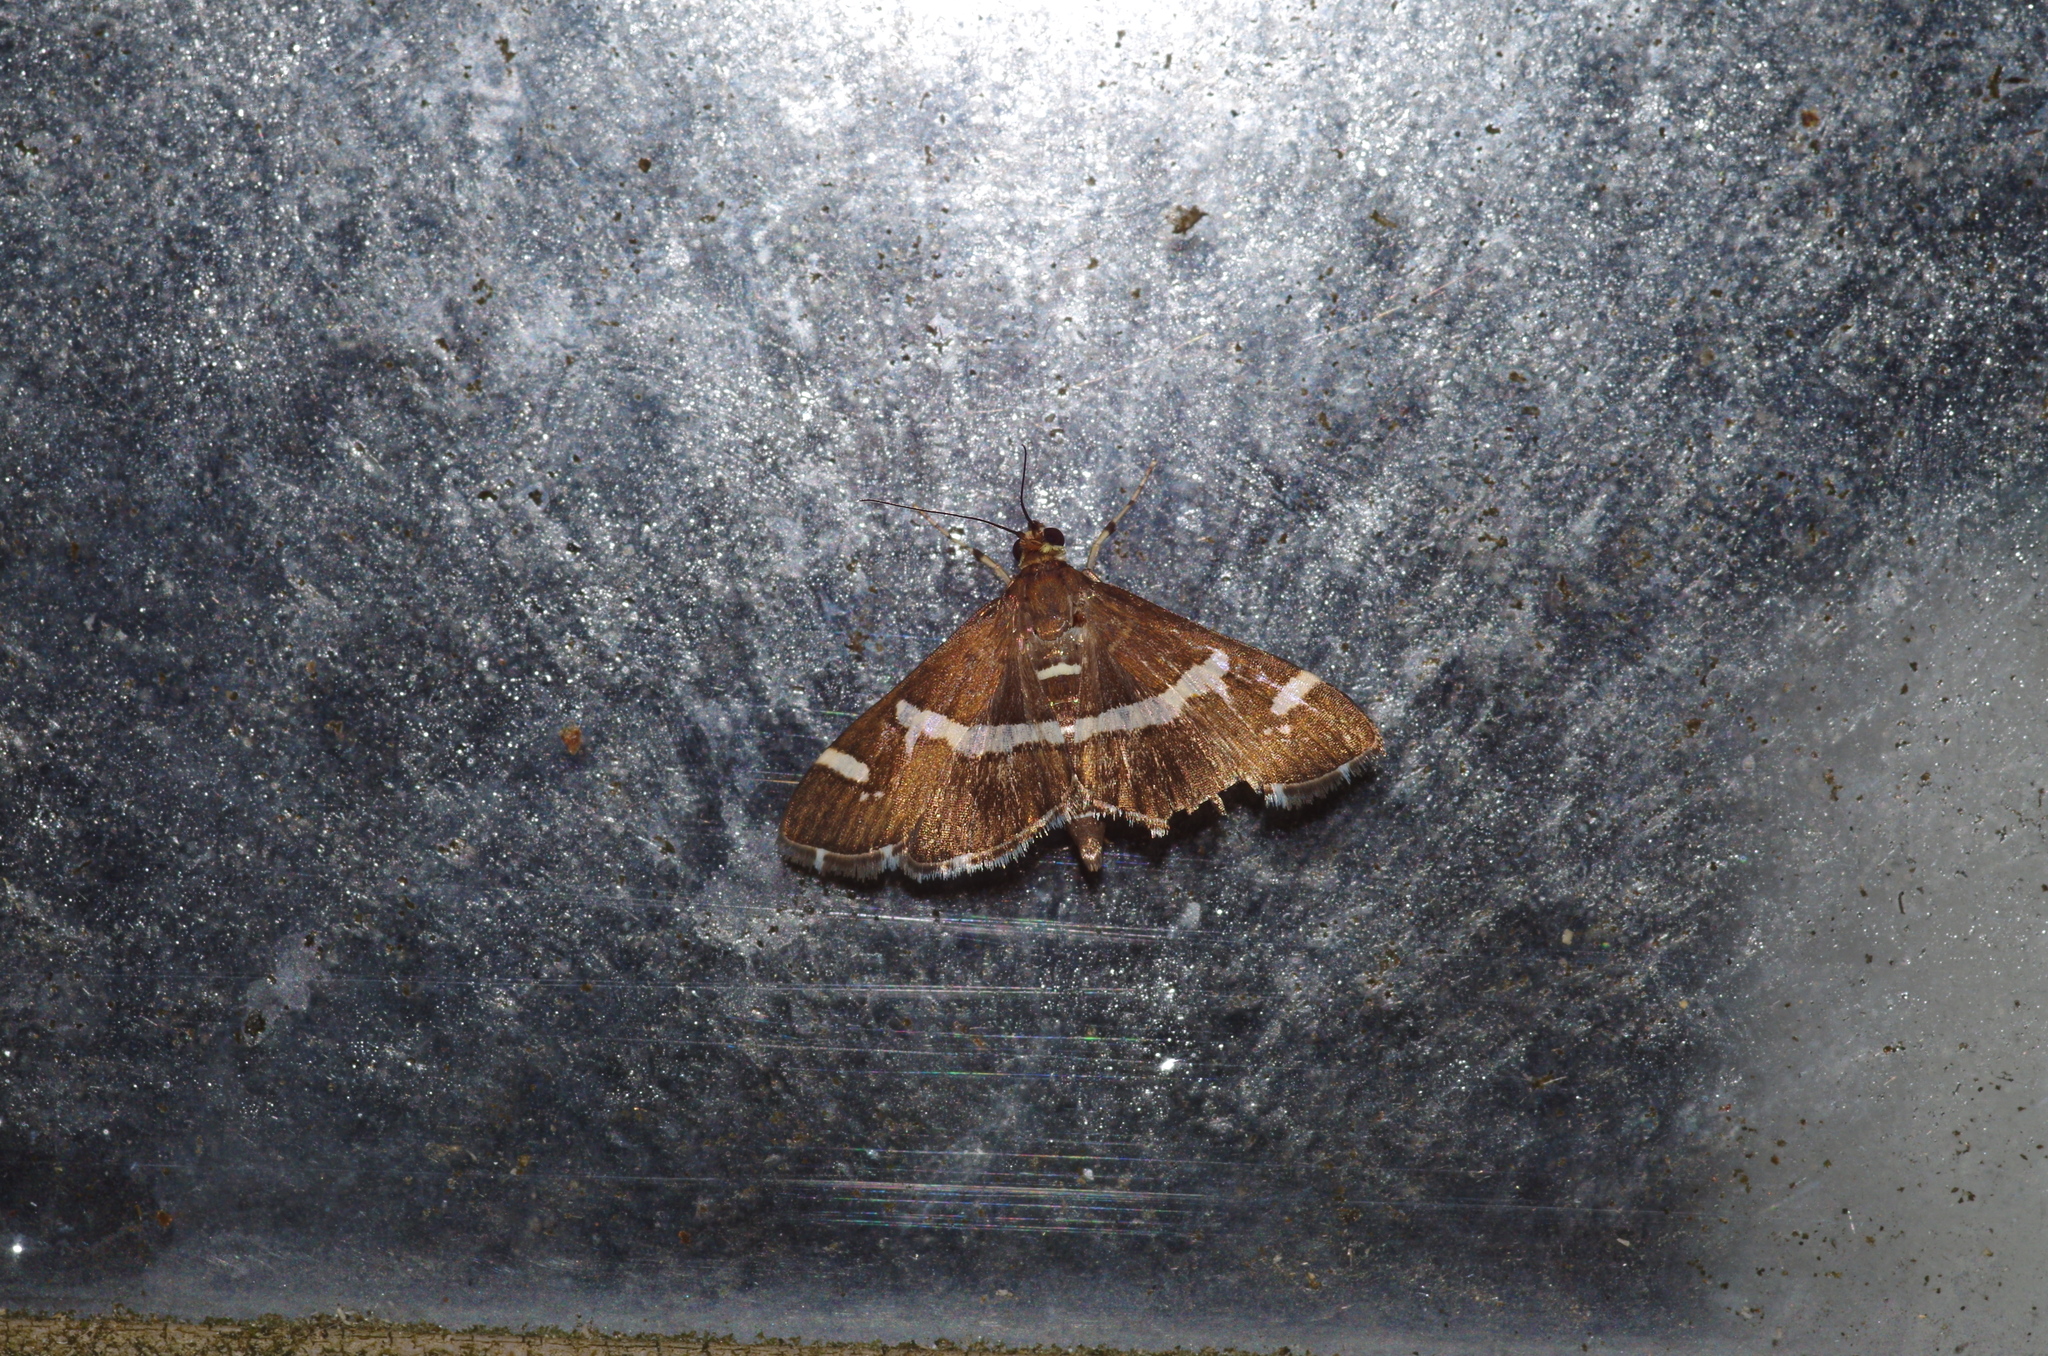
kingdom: Animalia
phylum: Arthropoda
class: Insecta
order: Lepidoptera
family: Crambidae
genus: Spoladea
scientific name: Spoladea recurvalis
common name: Beet webworm moth
